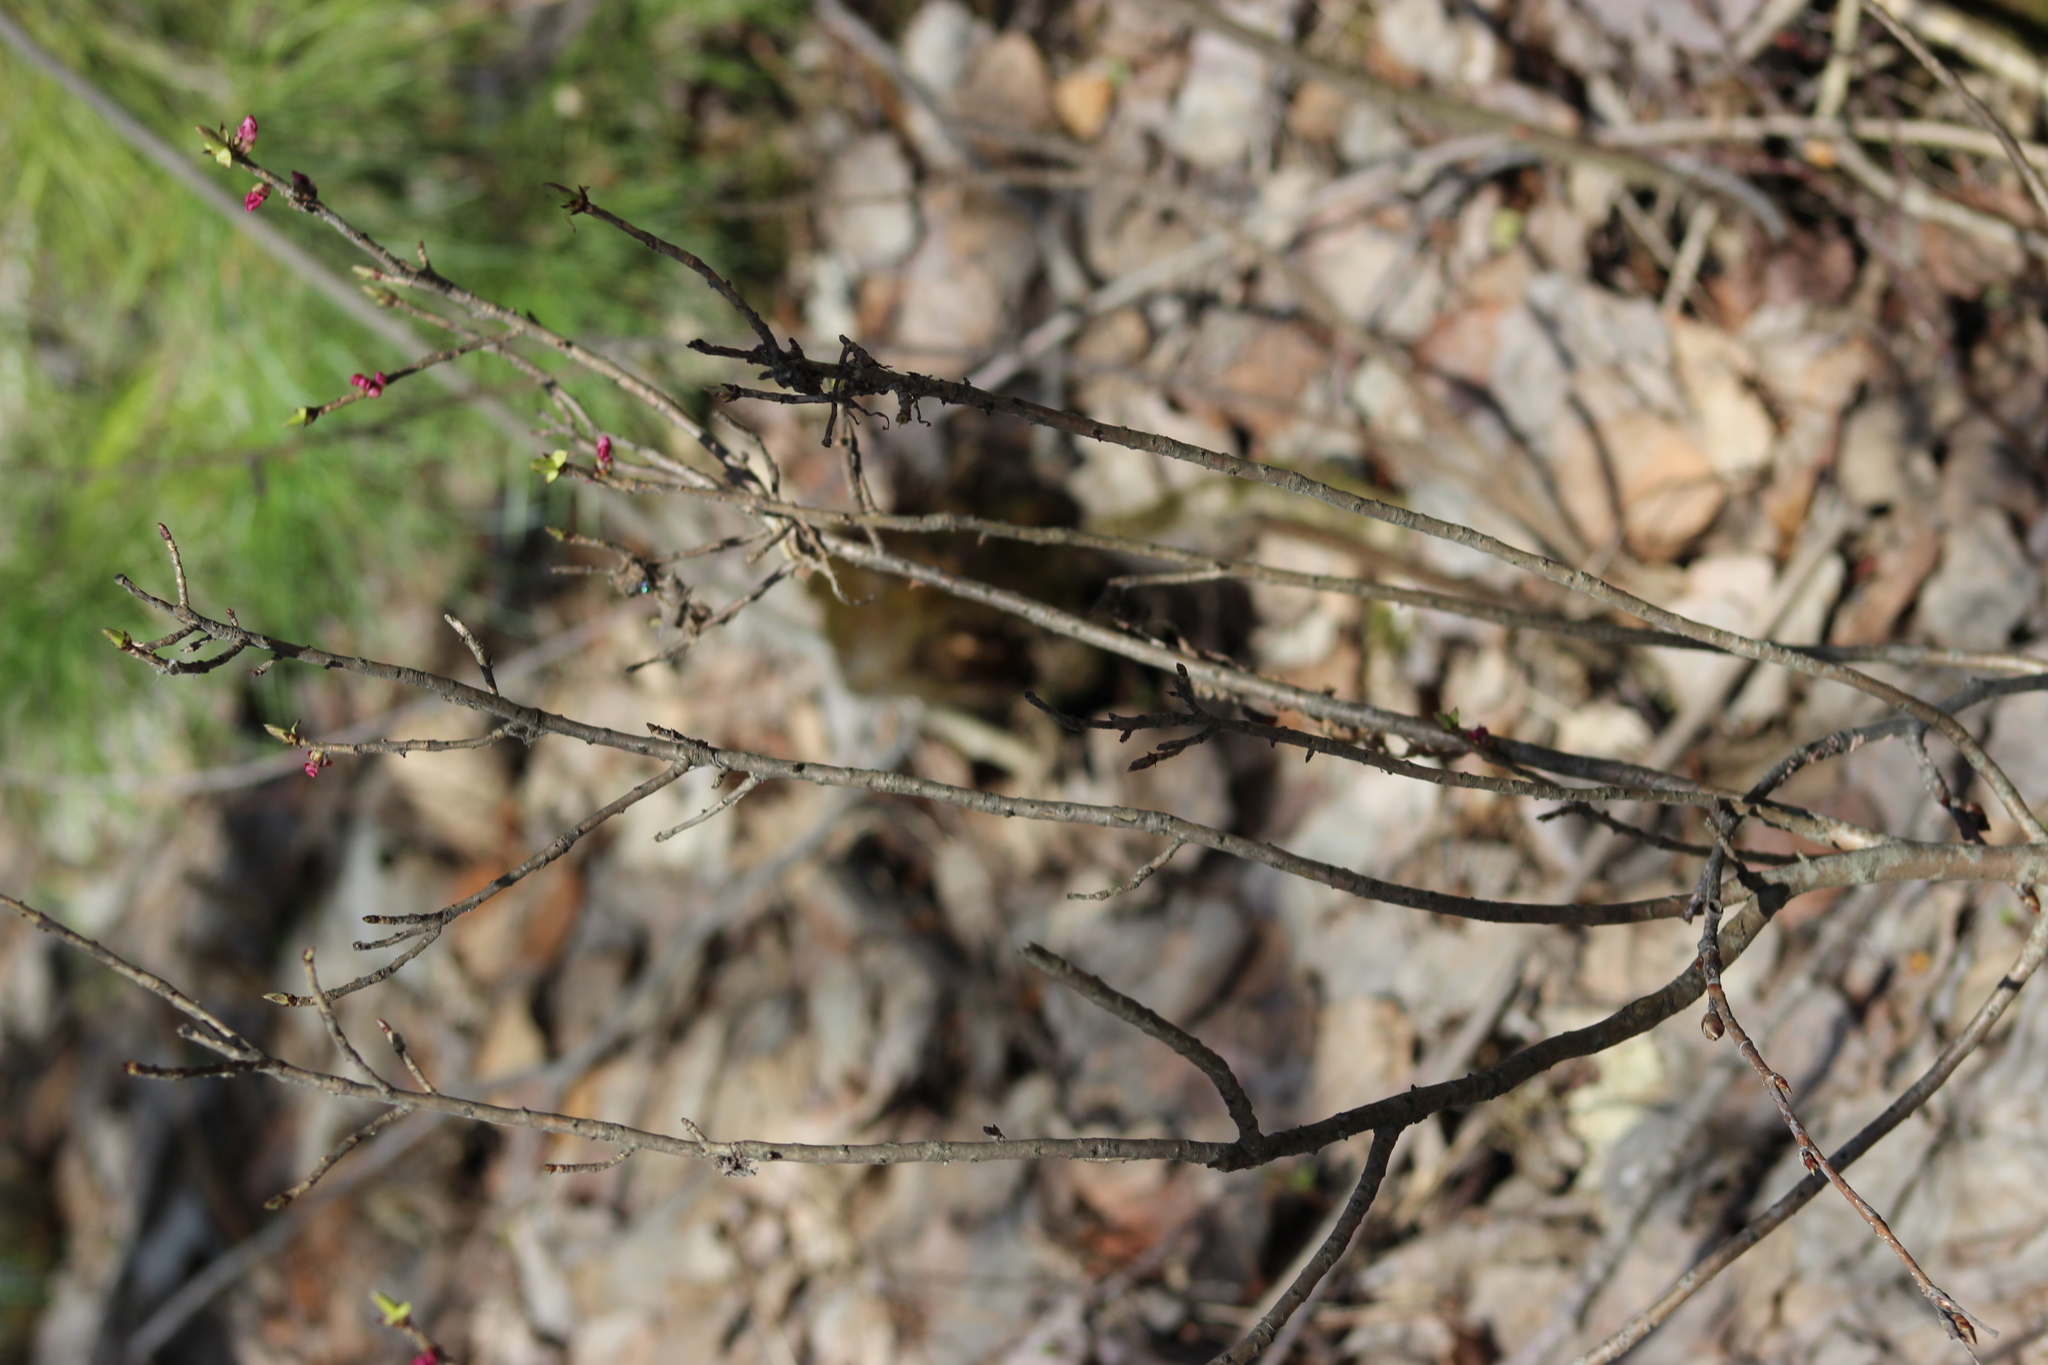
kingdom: Plantae
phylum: Tracheophyta
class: Magnoliopsida
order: Malvales
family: Thymelaeaceae
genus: Daphne
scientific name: Daphne mezereum
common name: Mezereon
